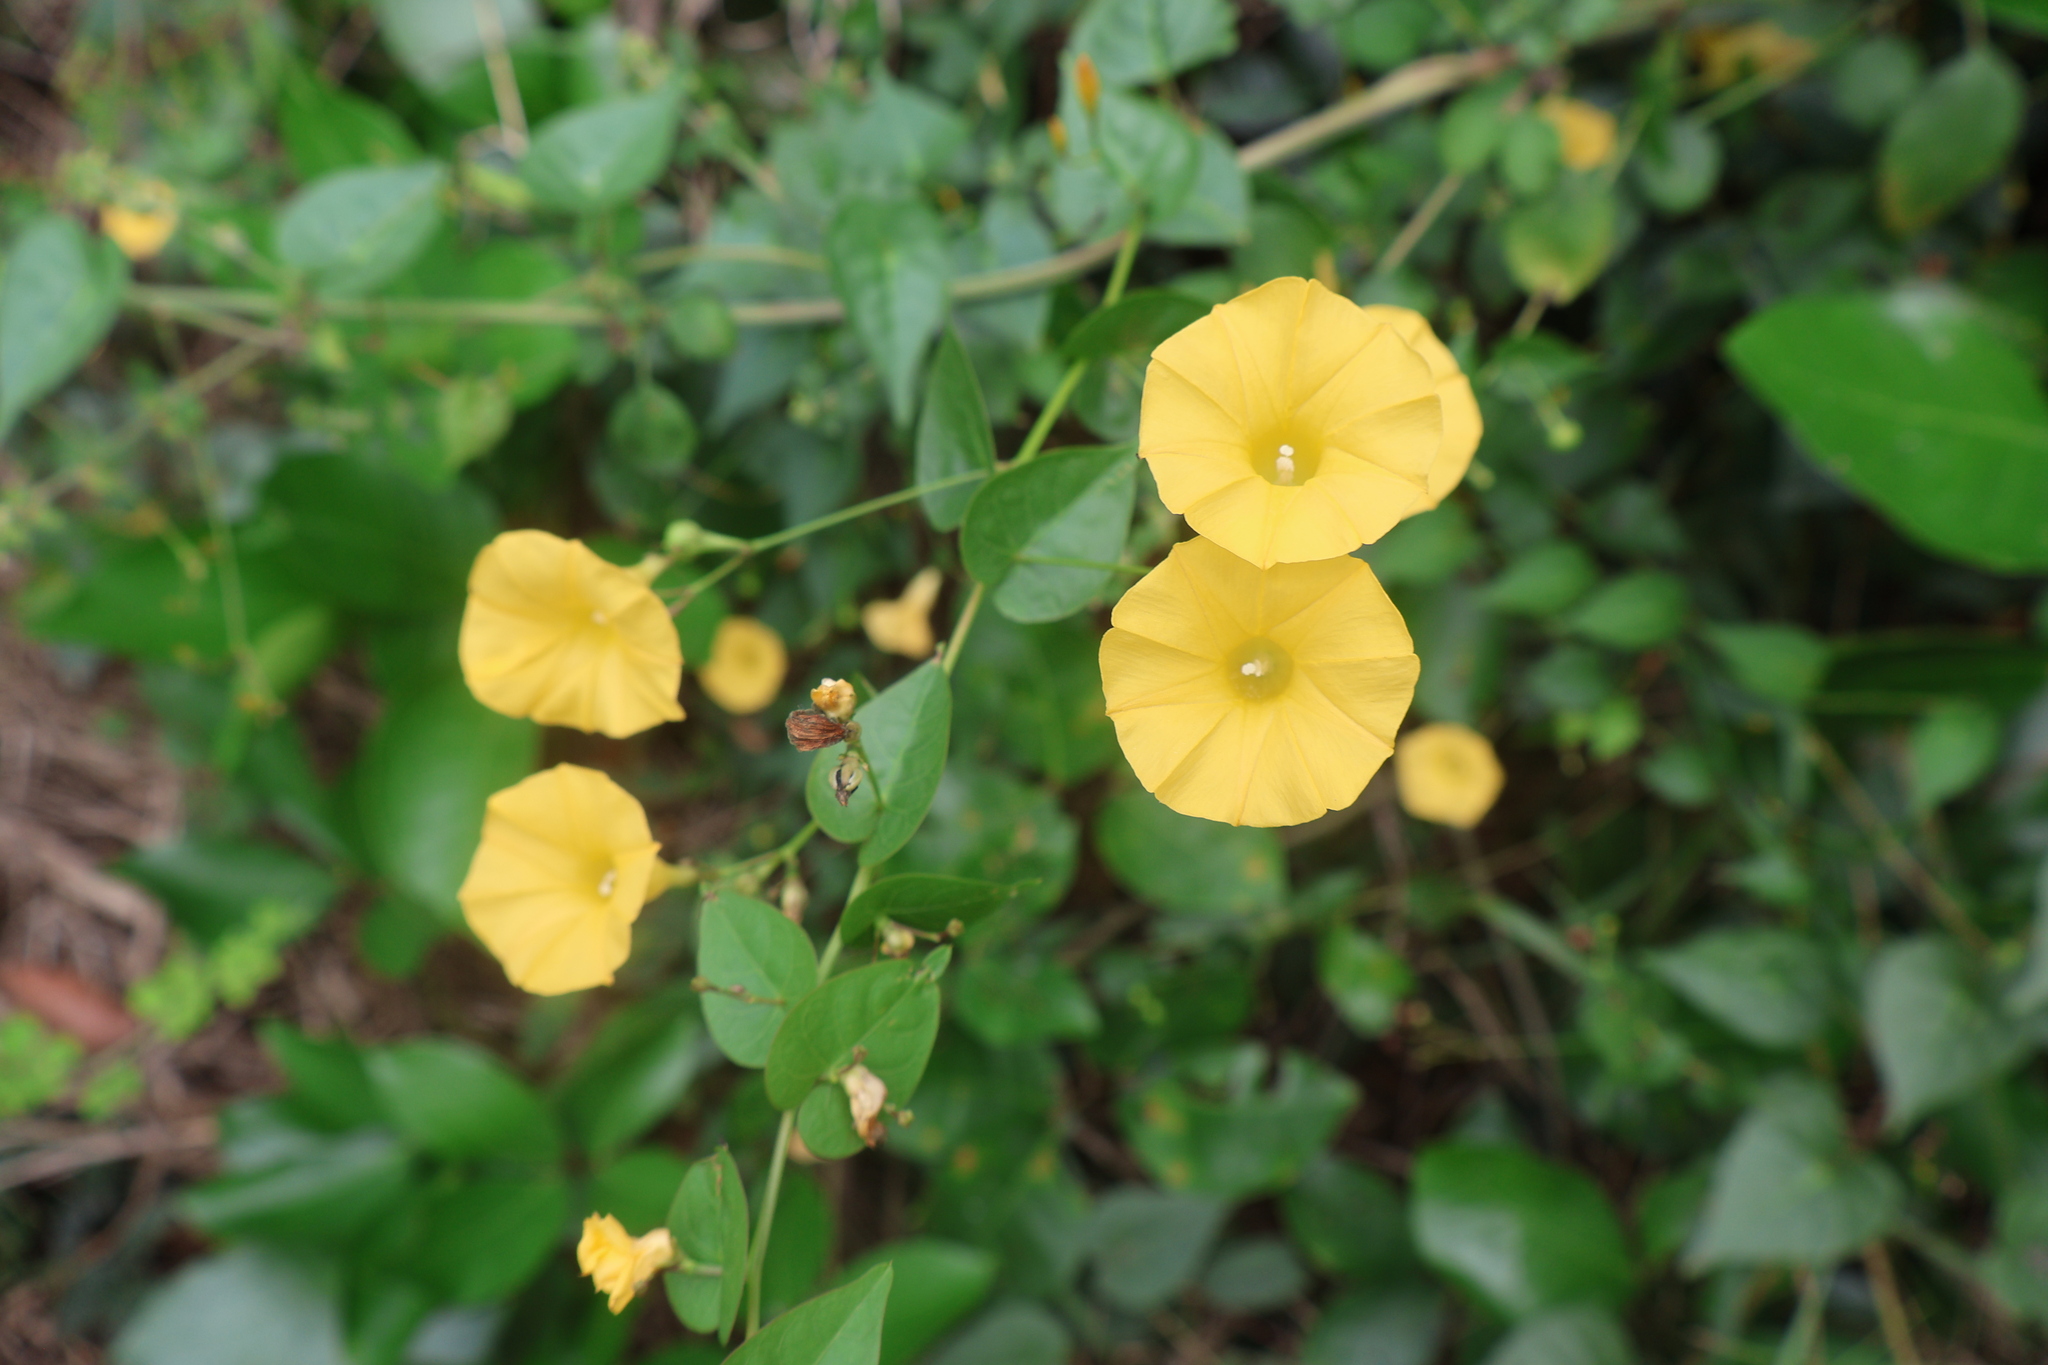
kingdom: Plantae
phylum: Tracheophyta
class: Magnoliopsida
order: Solanales
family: Convolvulaceae
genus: Ipomoea
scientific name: Ipomoea microsepala
